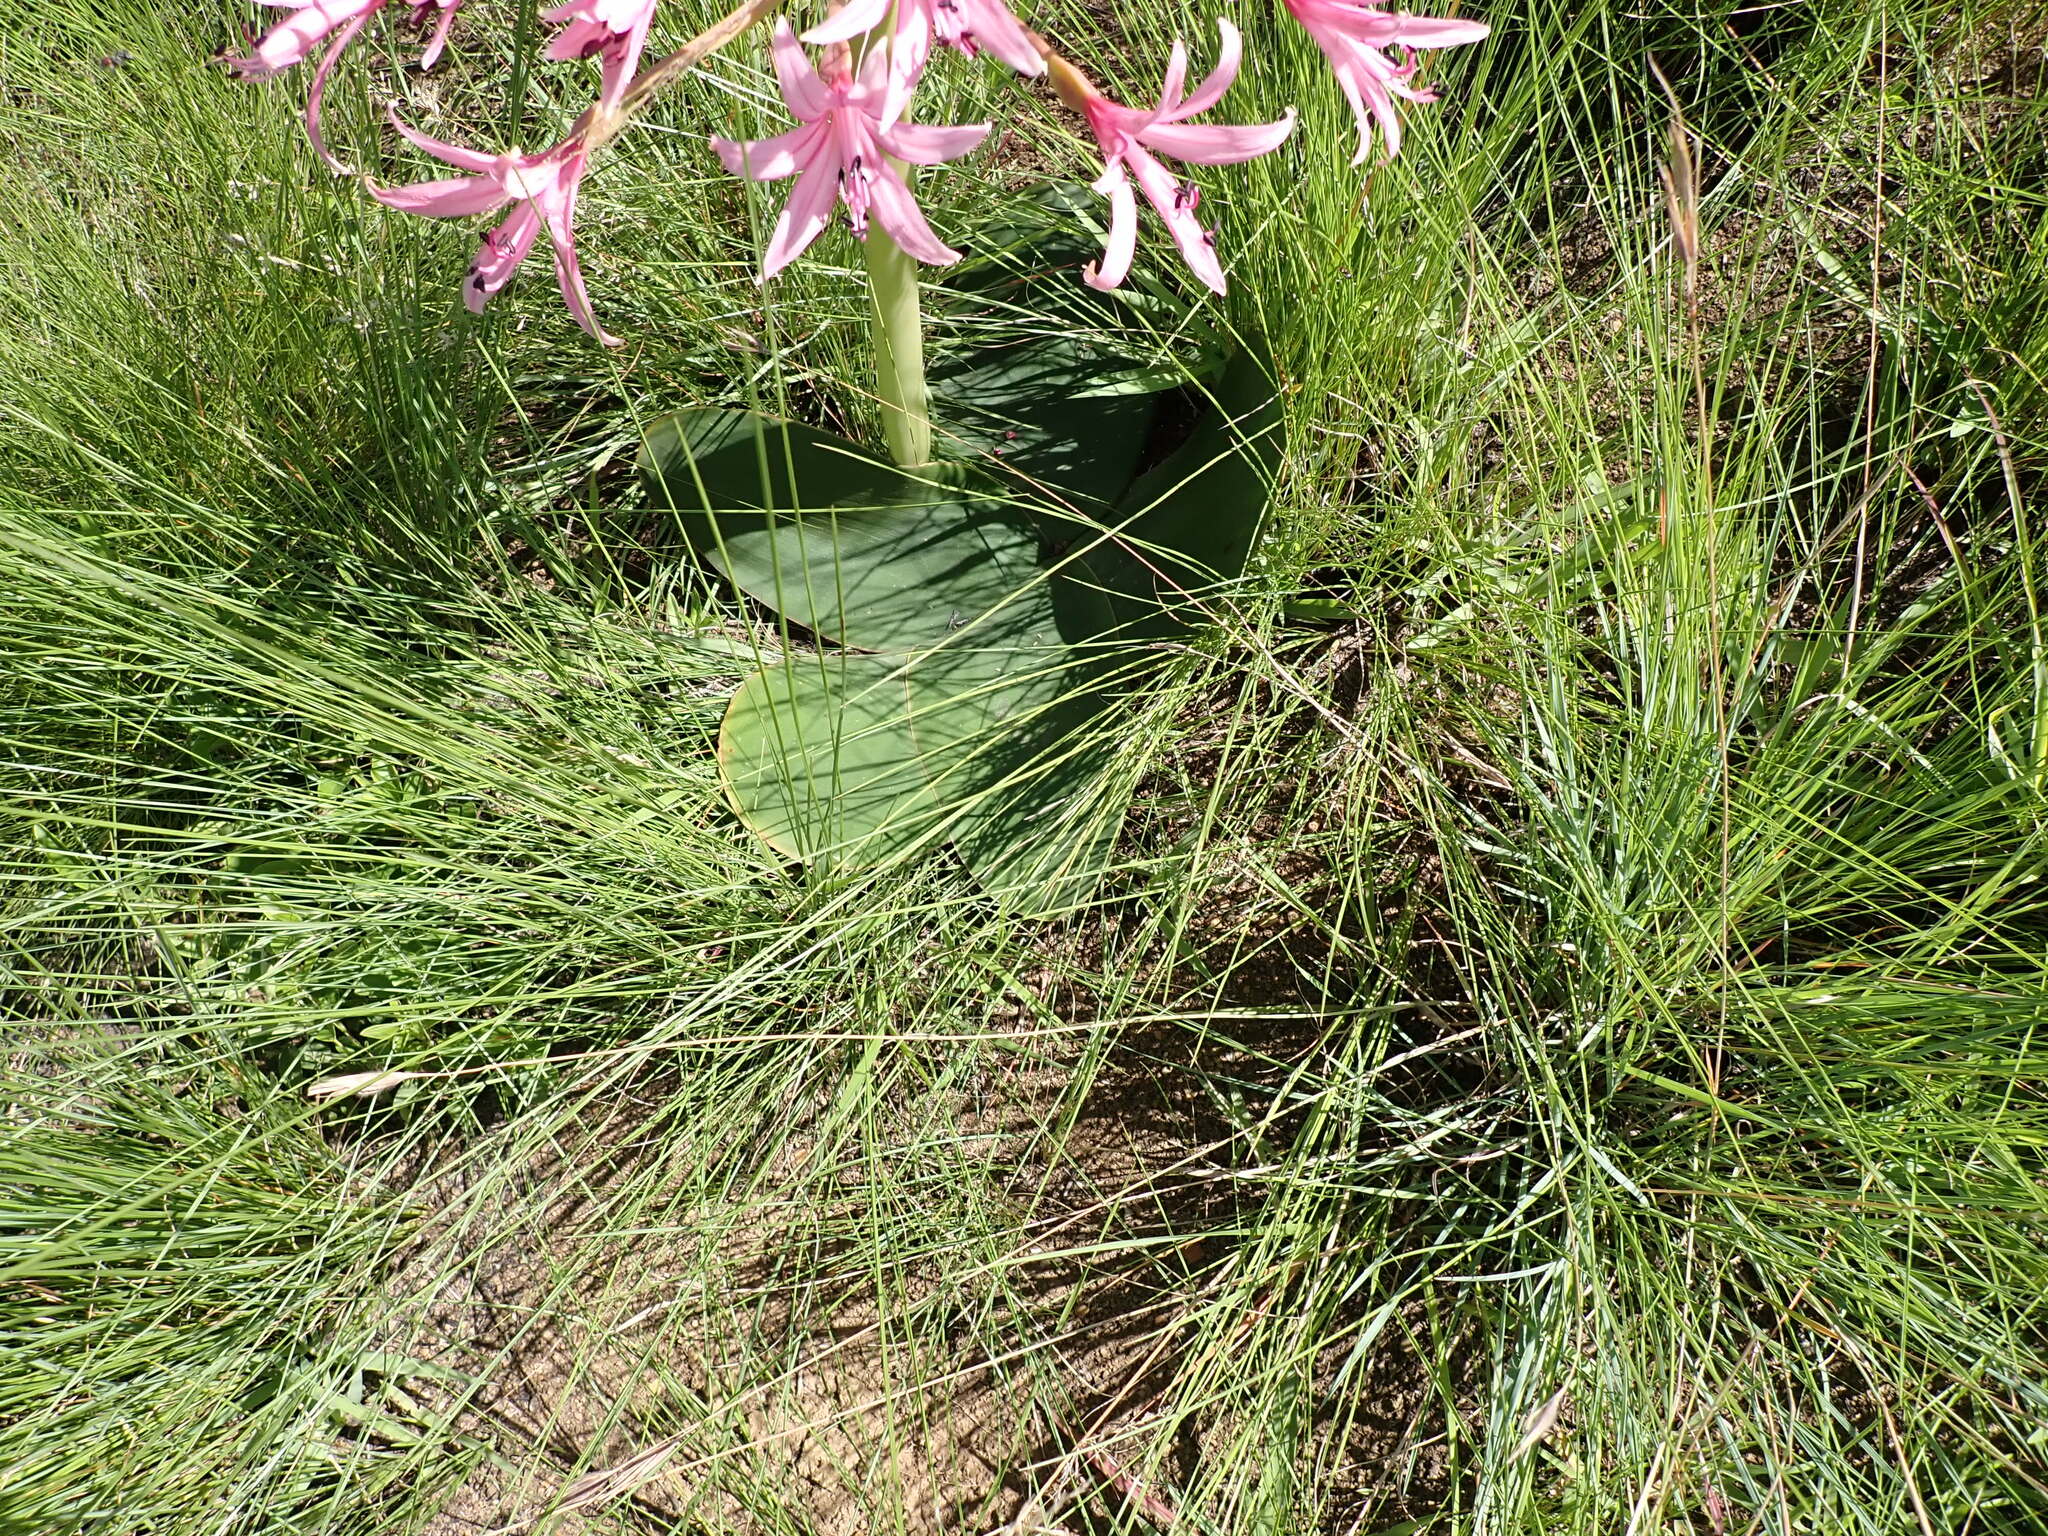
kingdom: Plantae
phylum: Tracheophyta
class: Liliopsida
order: Asparagales
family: Amaryllidaceae
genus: Brunsvigia
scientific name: Brunsvigia radulosa
